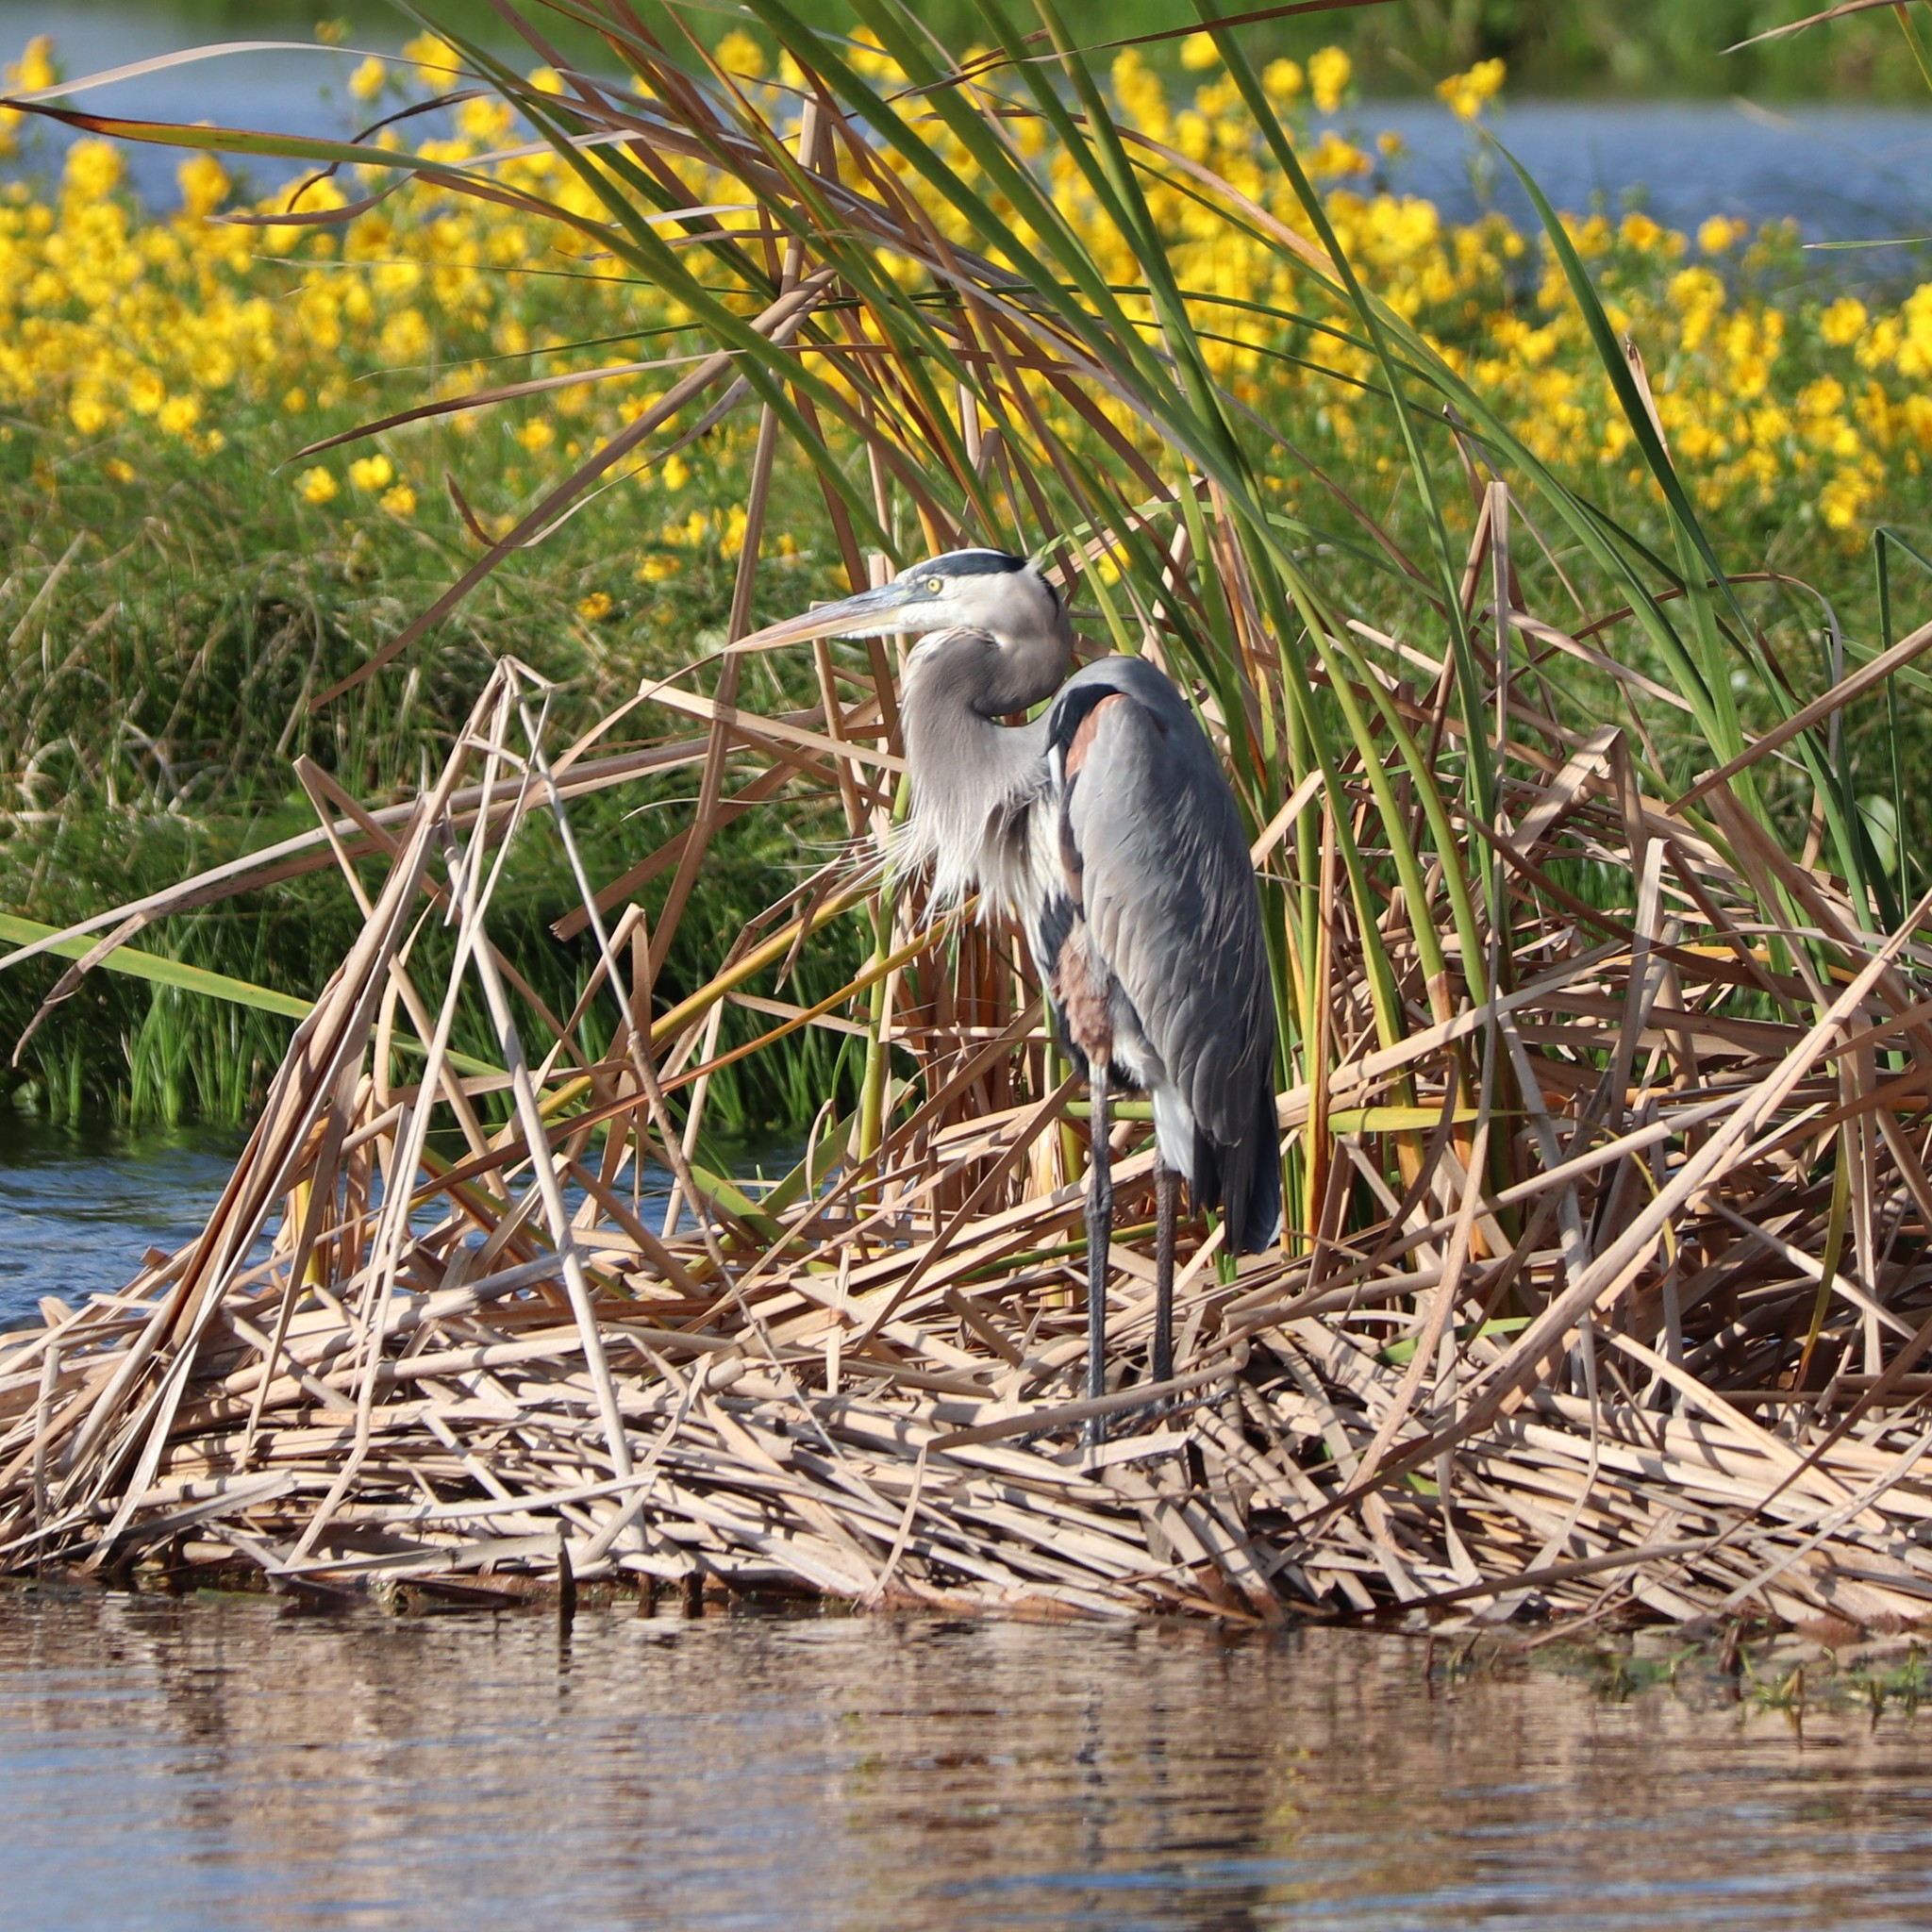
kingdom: Animalia
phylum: Chordata
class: Aves
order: Pelecaniformes
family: Ardeidae
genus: Ardea
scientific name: Ardea herodias
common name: Great blue heron
